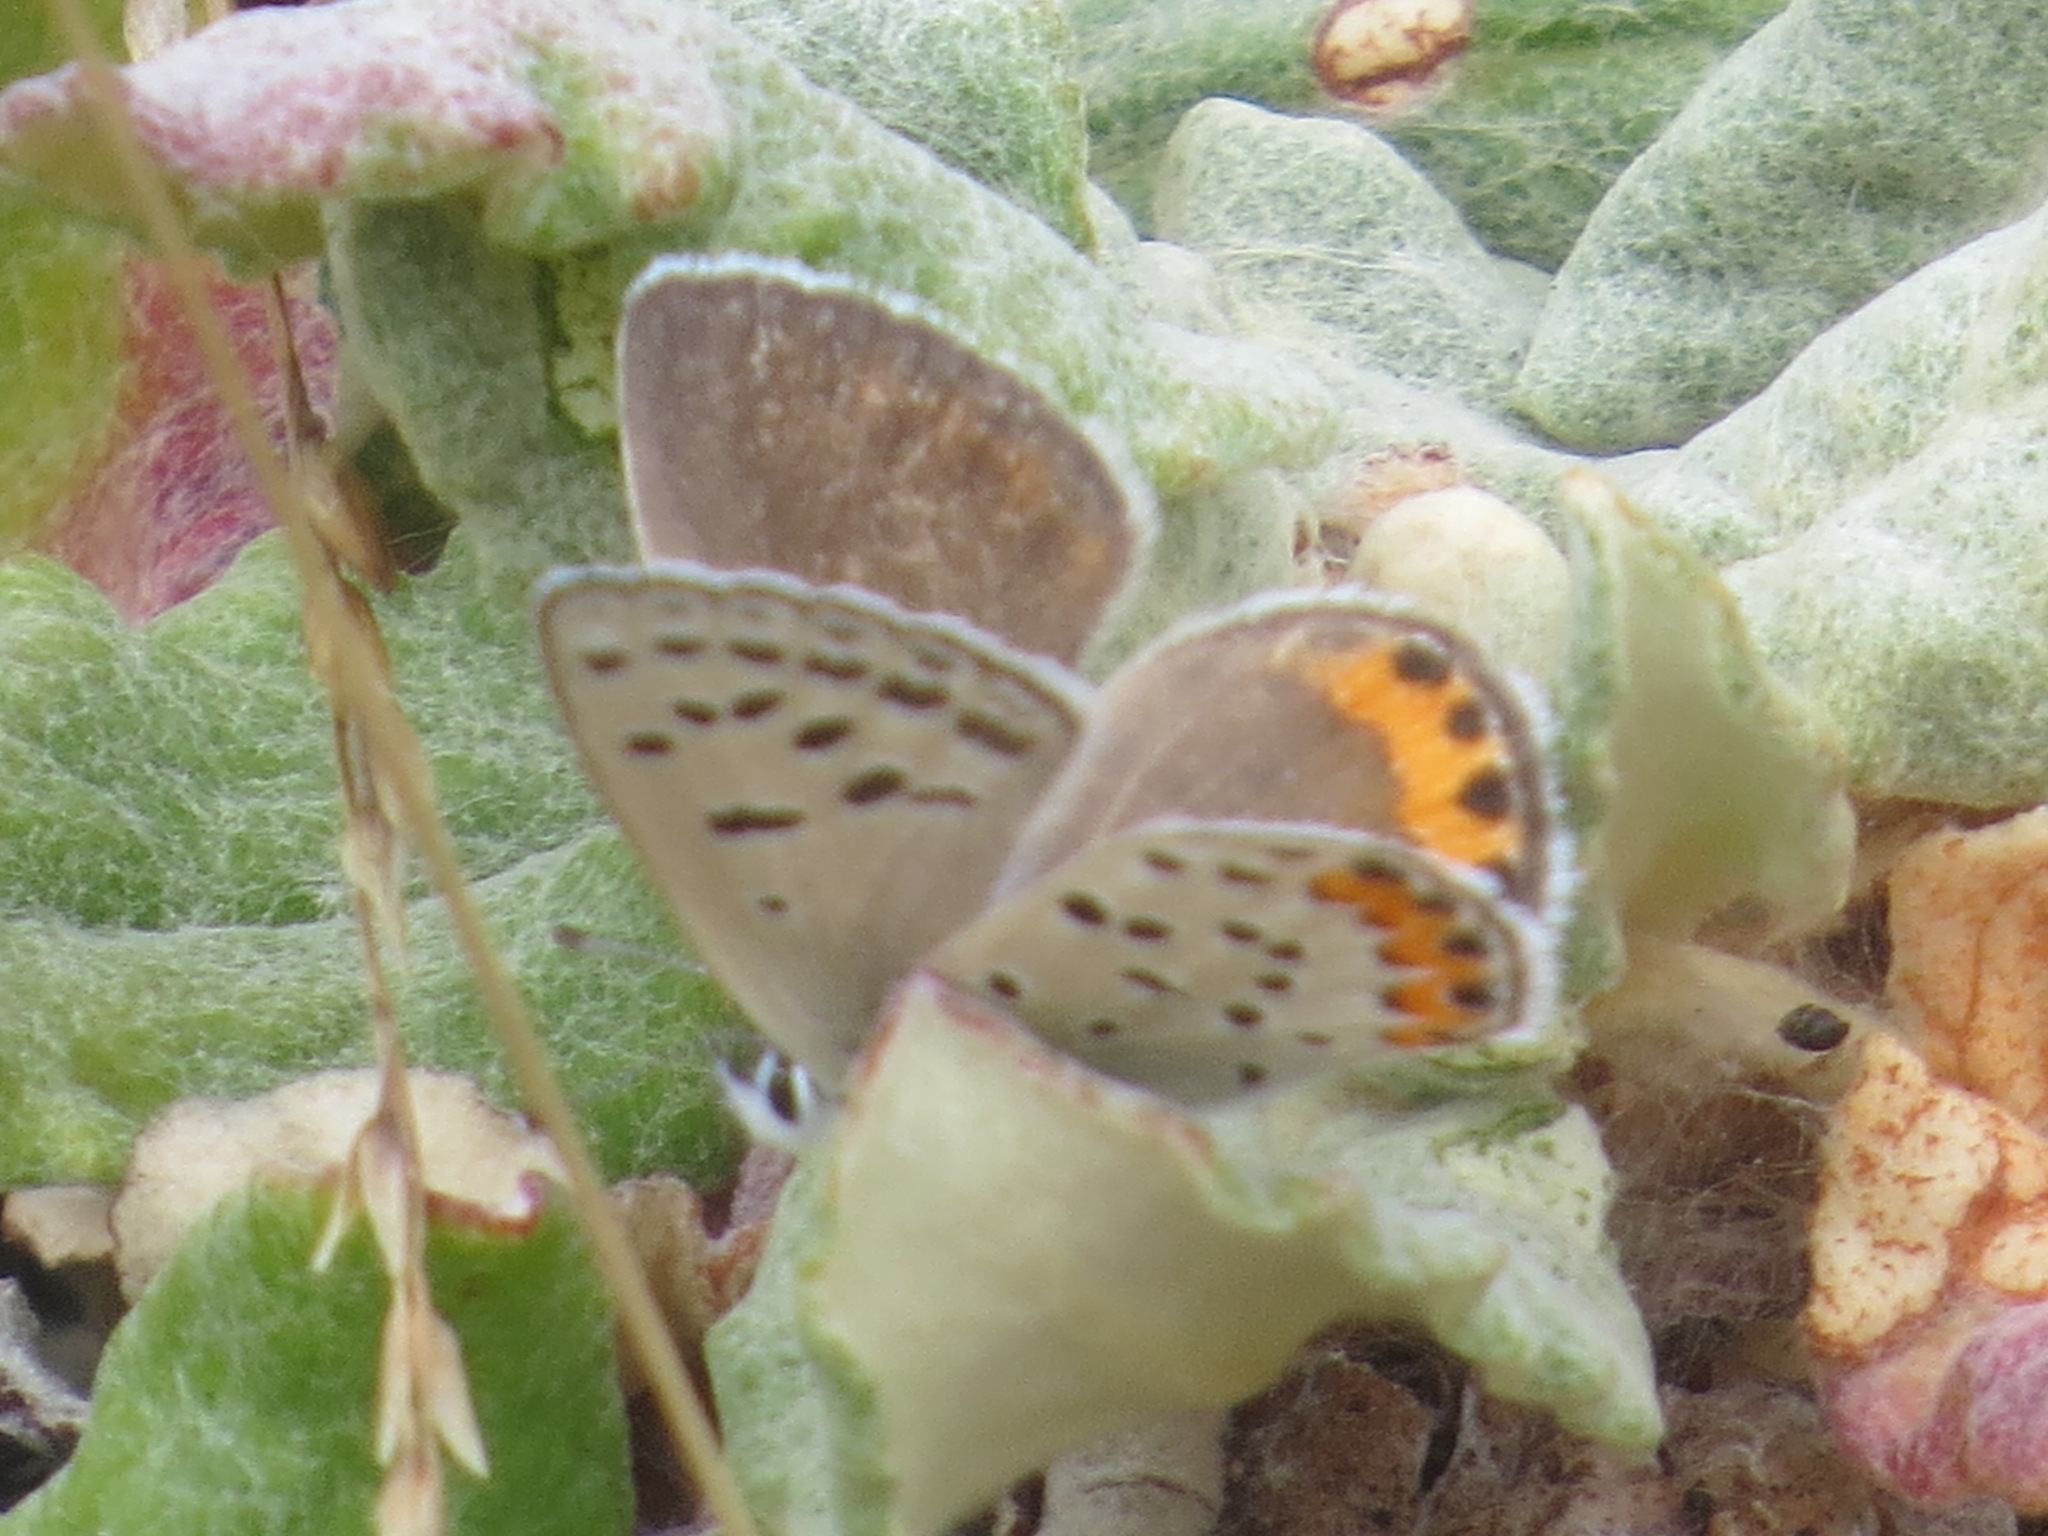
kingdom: Animalia
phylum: Arthropoda
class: Insecta
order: Lepidoptera
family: Lycaenidae
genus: Icaricia
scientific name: Icaricia acmon
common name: Acmon blue
